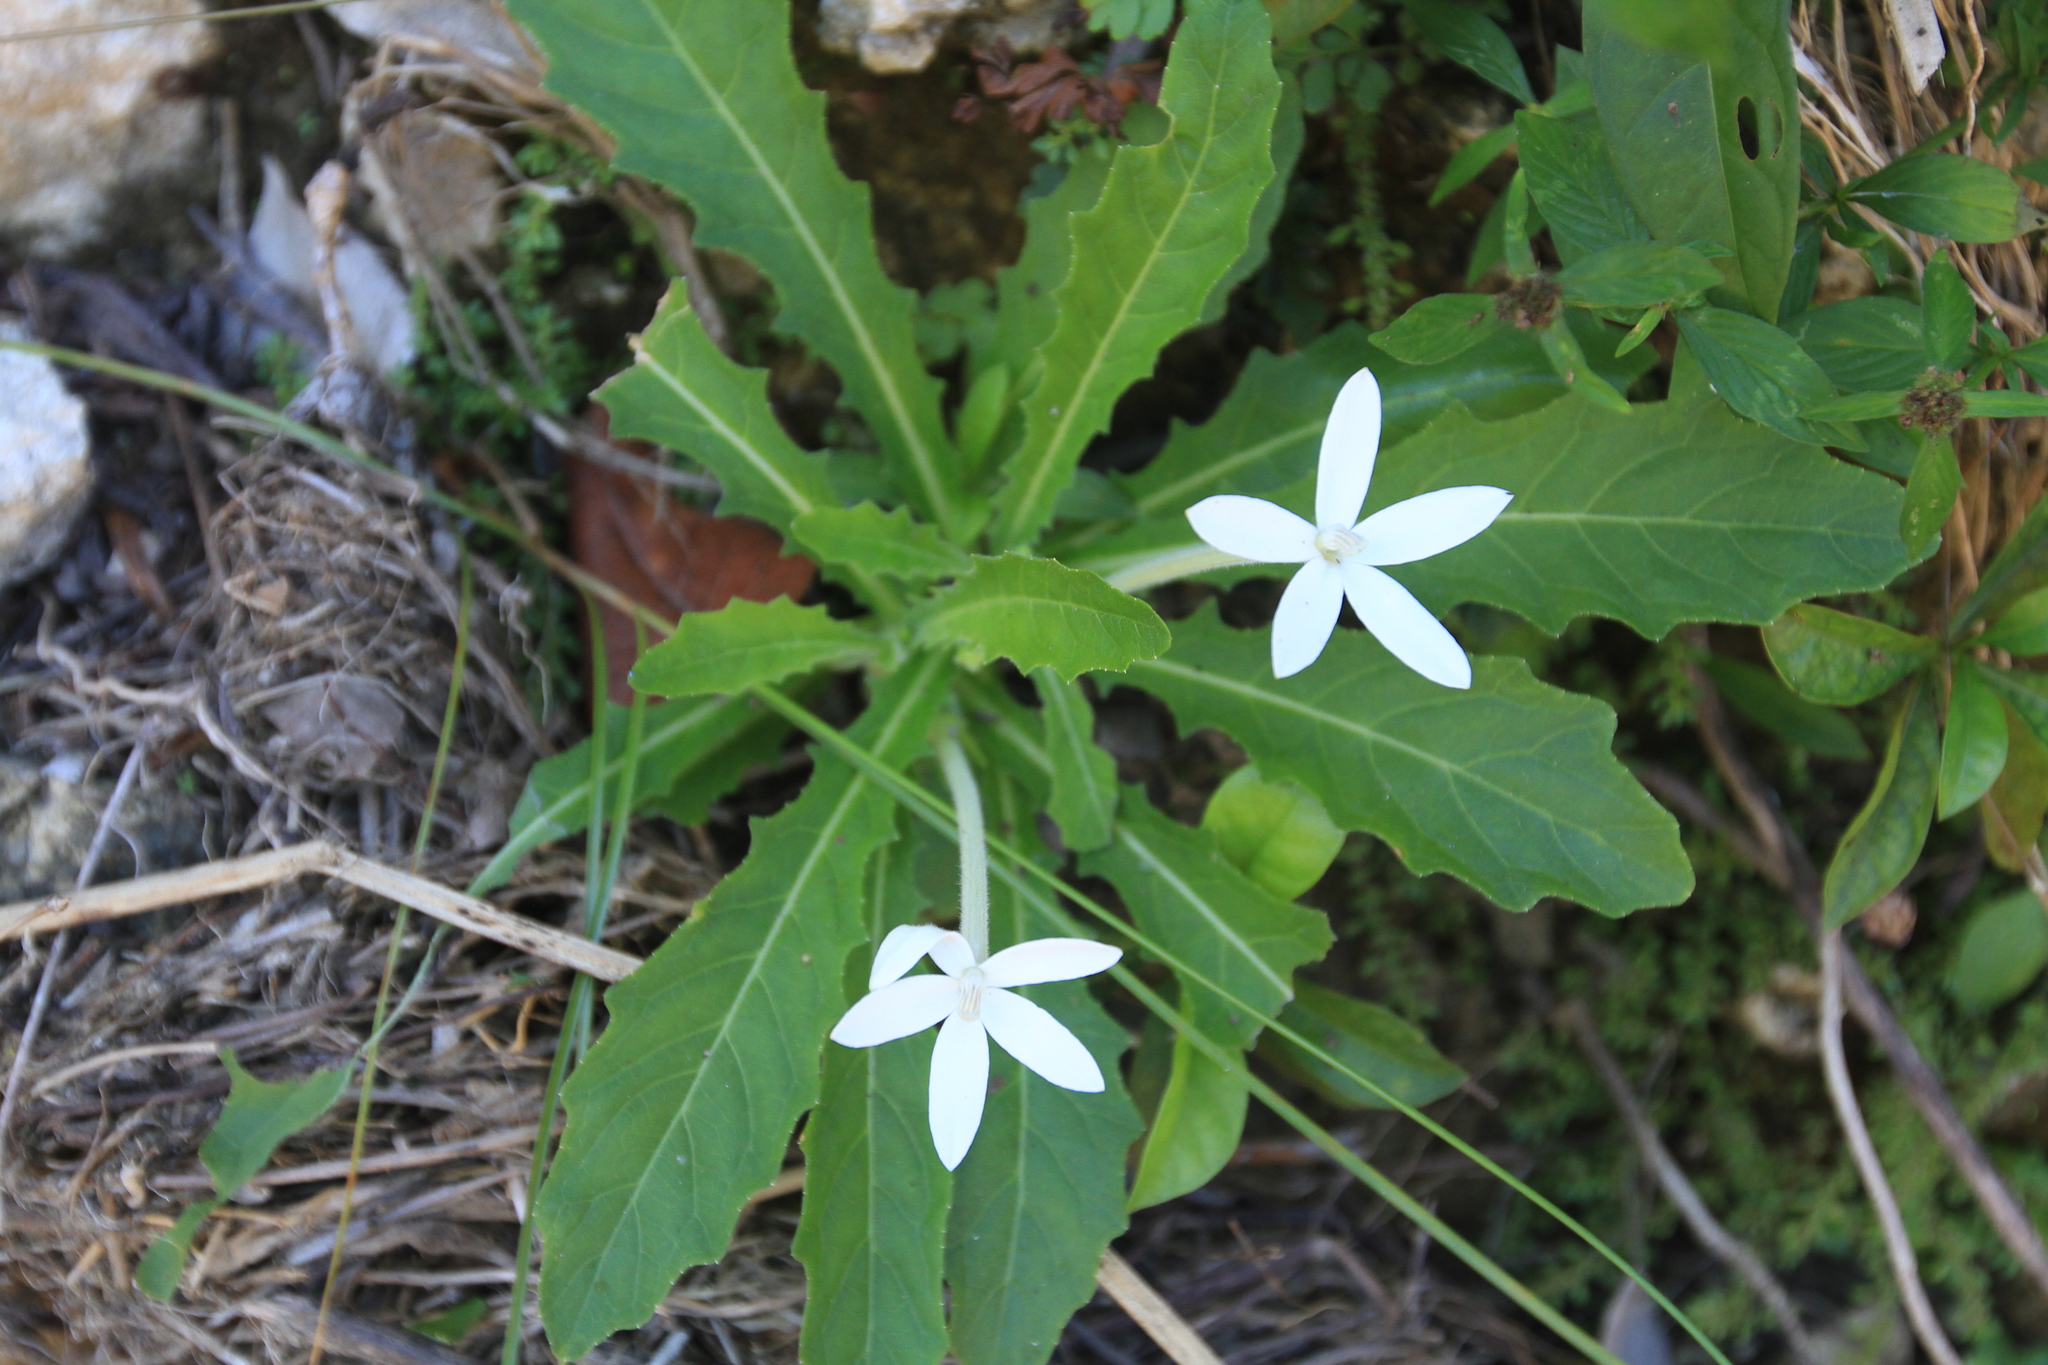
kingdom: Plantae
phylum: Tracheophyta
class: Magnoliopsida
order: Asterales
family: Campanulaceae
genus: Hippobroma
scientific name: Hippobroma longiflora
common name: Madamfate
